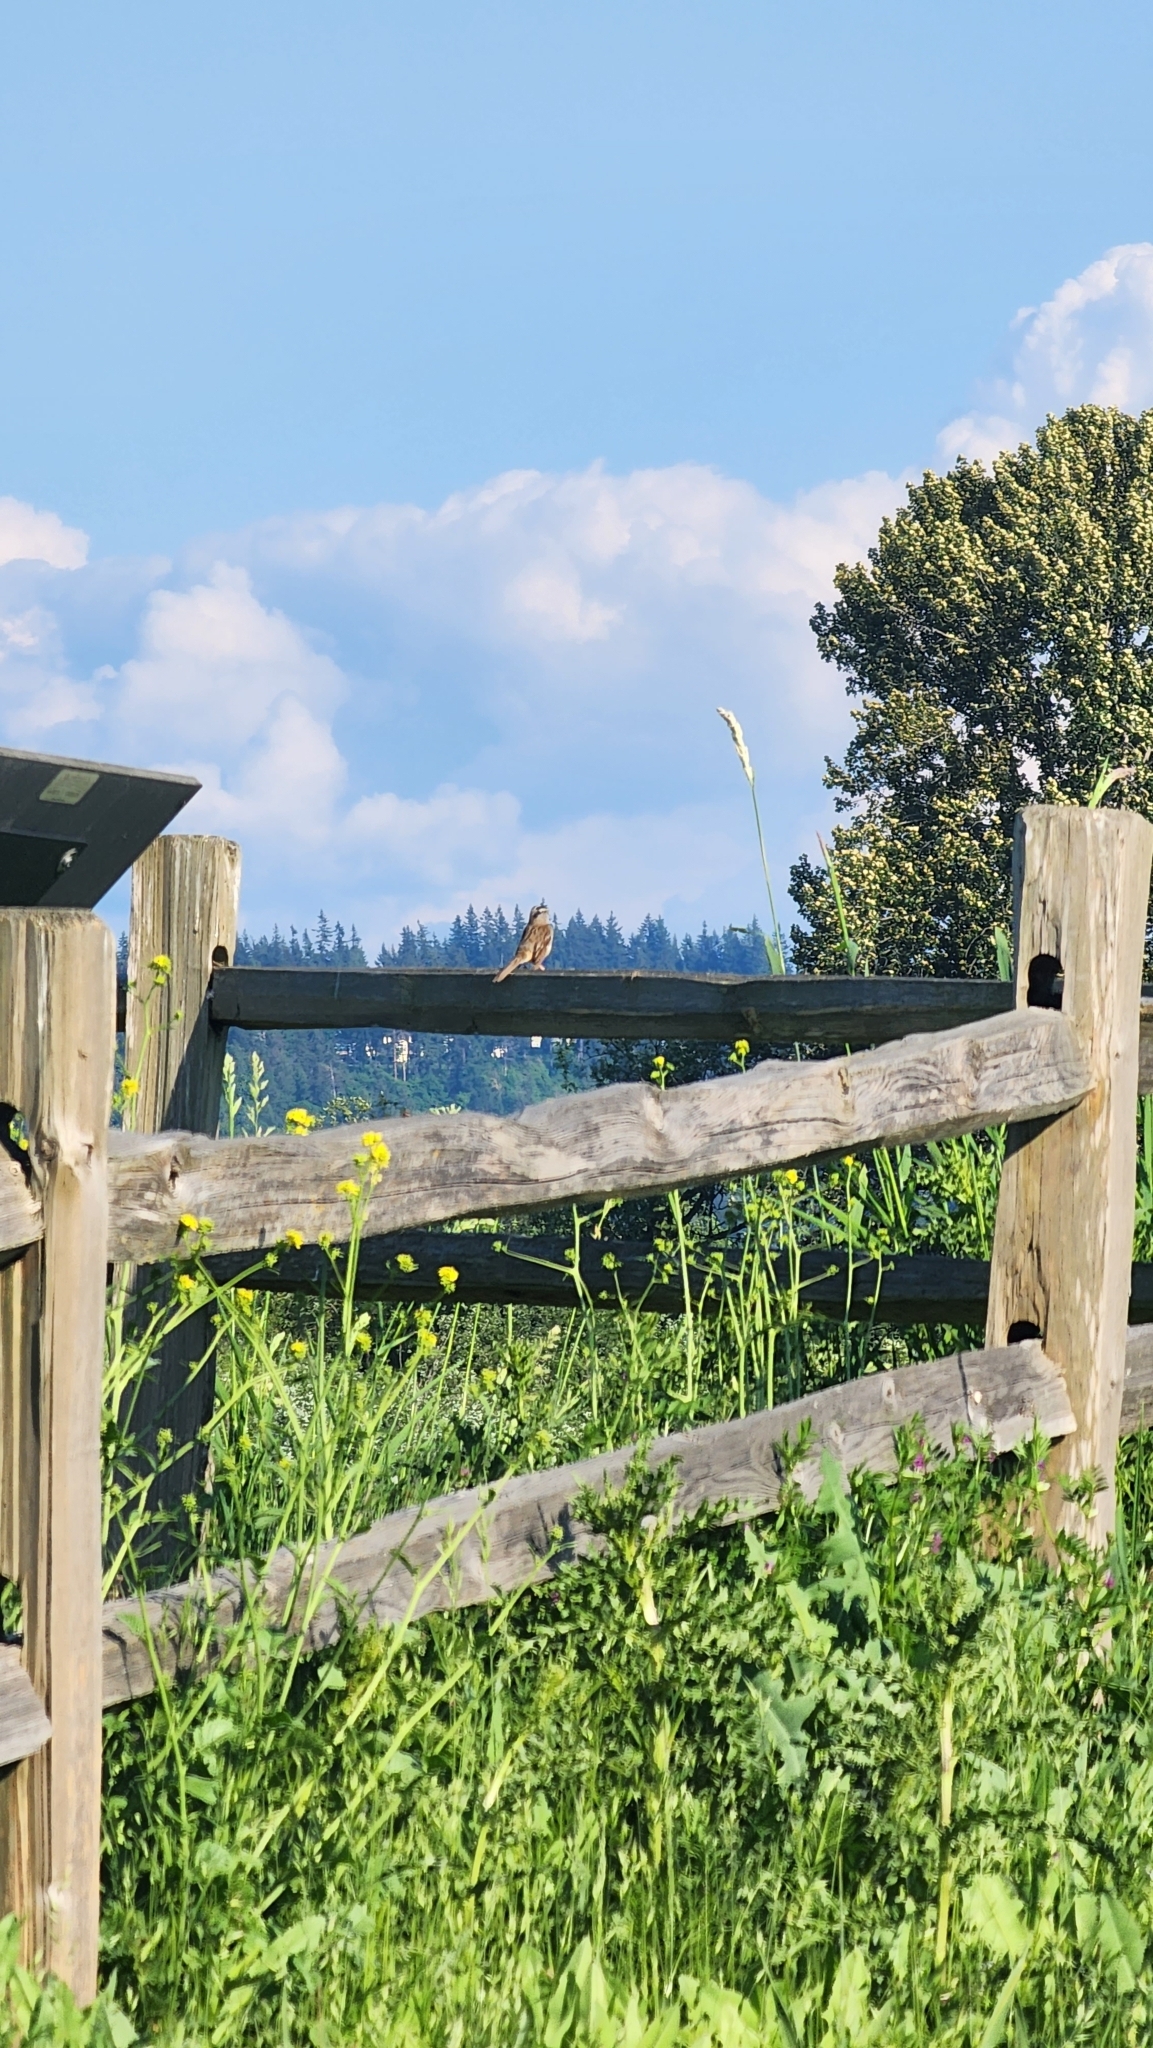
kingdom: Animalia
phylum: Chordata
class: Aves
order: Passeriformes
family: Passerellidae
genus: Zonotrichia
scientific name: Zonotrichia leucophrys
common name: White-crowned sparrow
